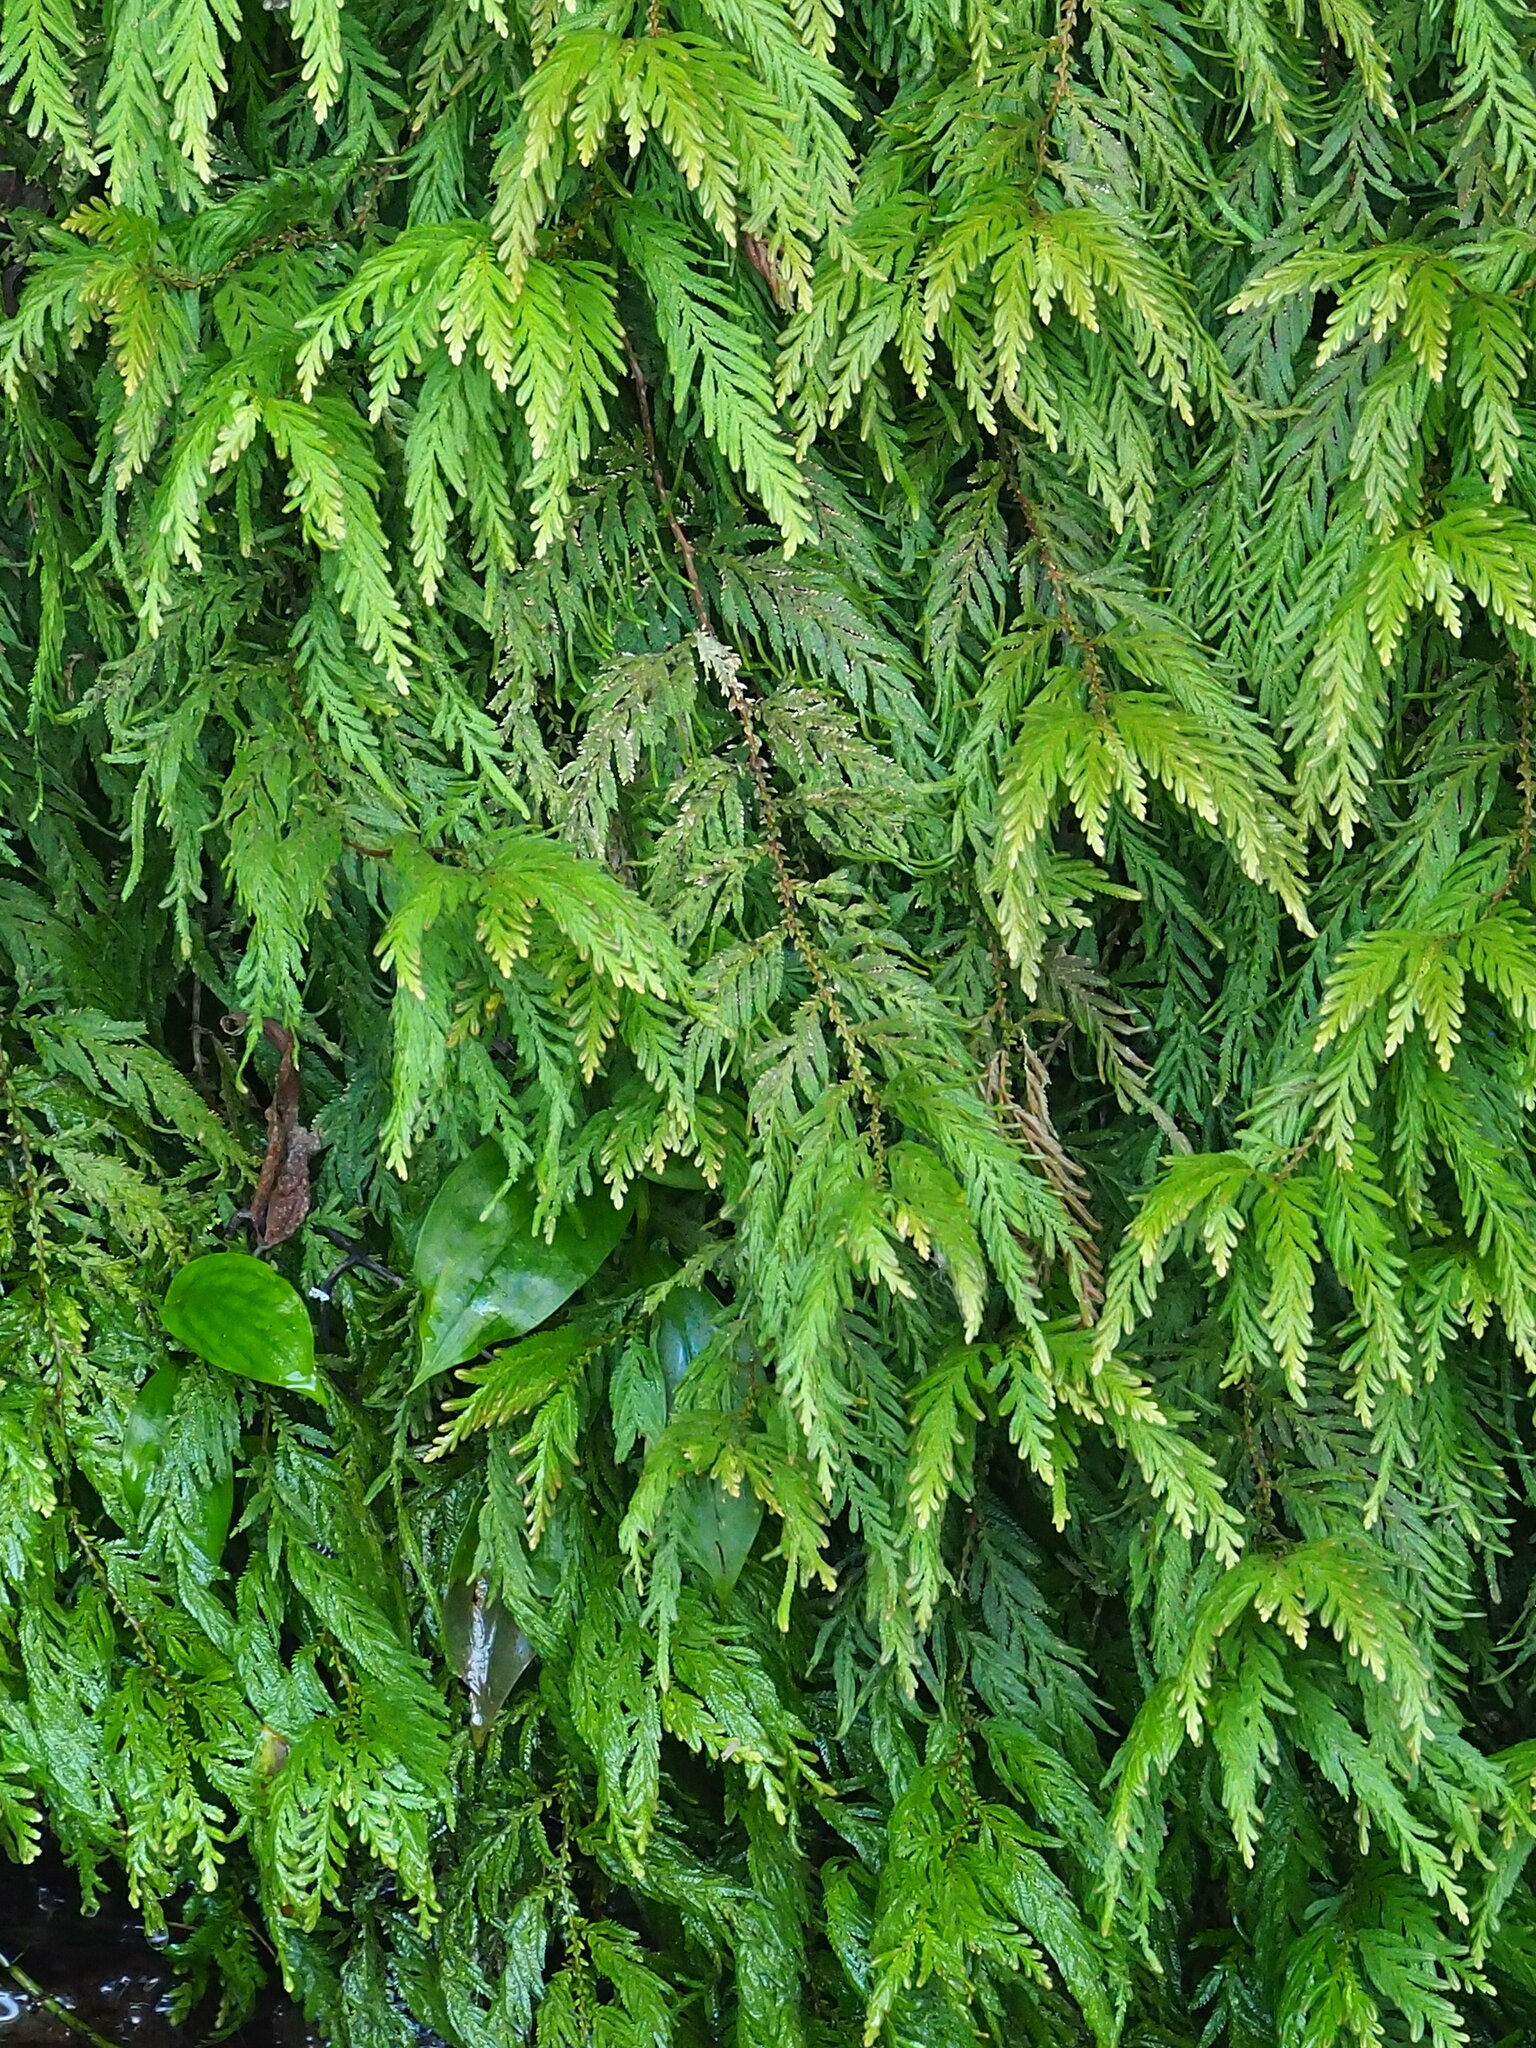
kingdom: Plantae
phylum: Tracheophyta
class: Lycopodiopsida
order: Selaginellales
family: Selaginellaceae
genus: Selaginella
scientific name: Selaginella delicatula
